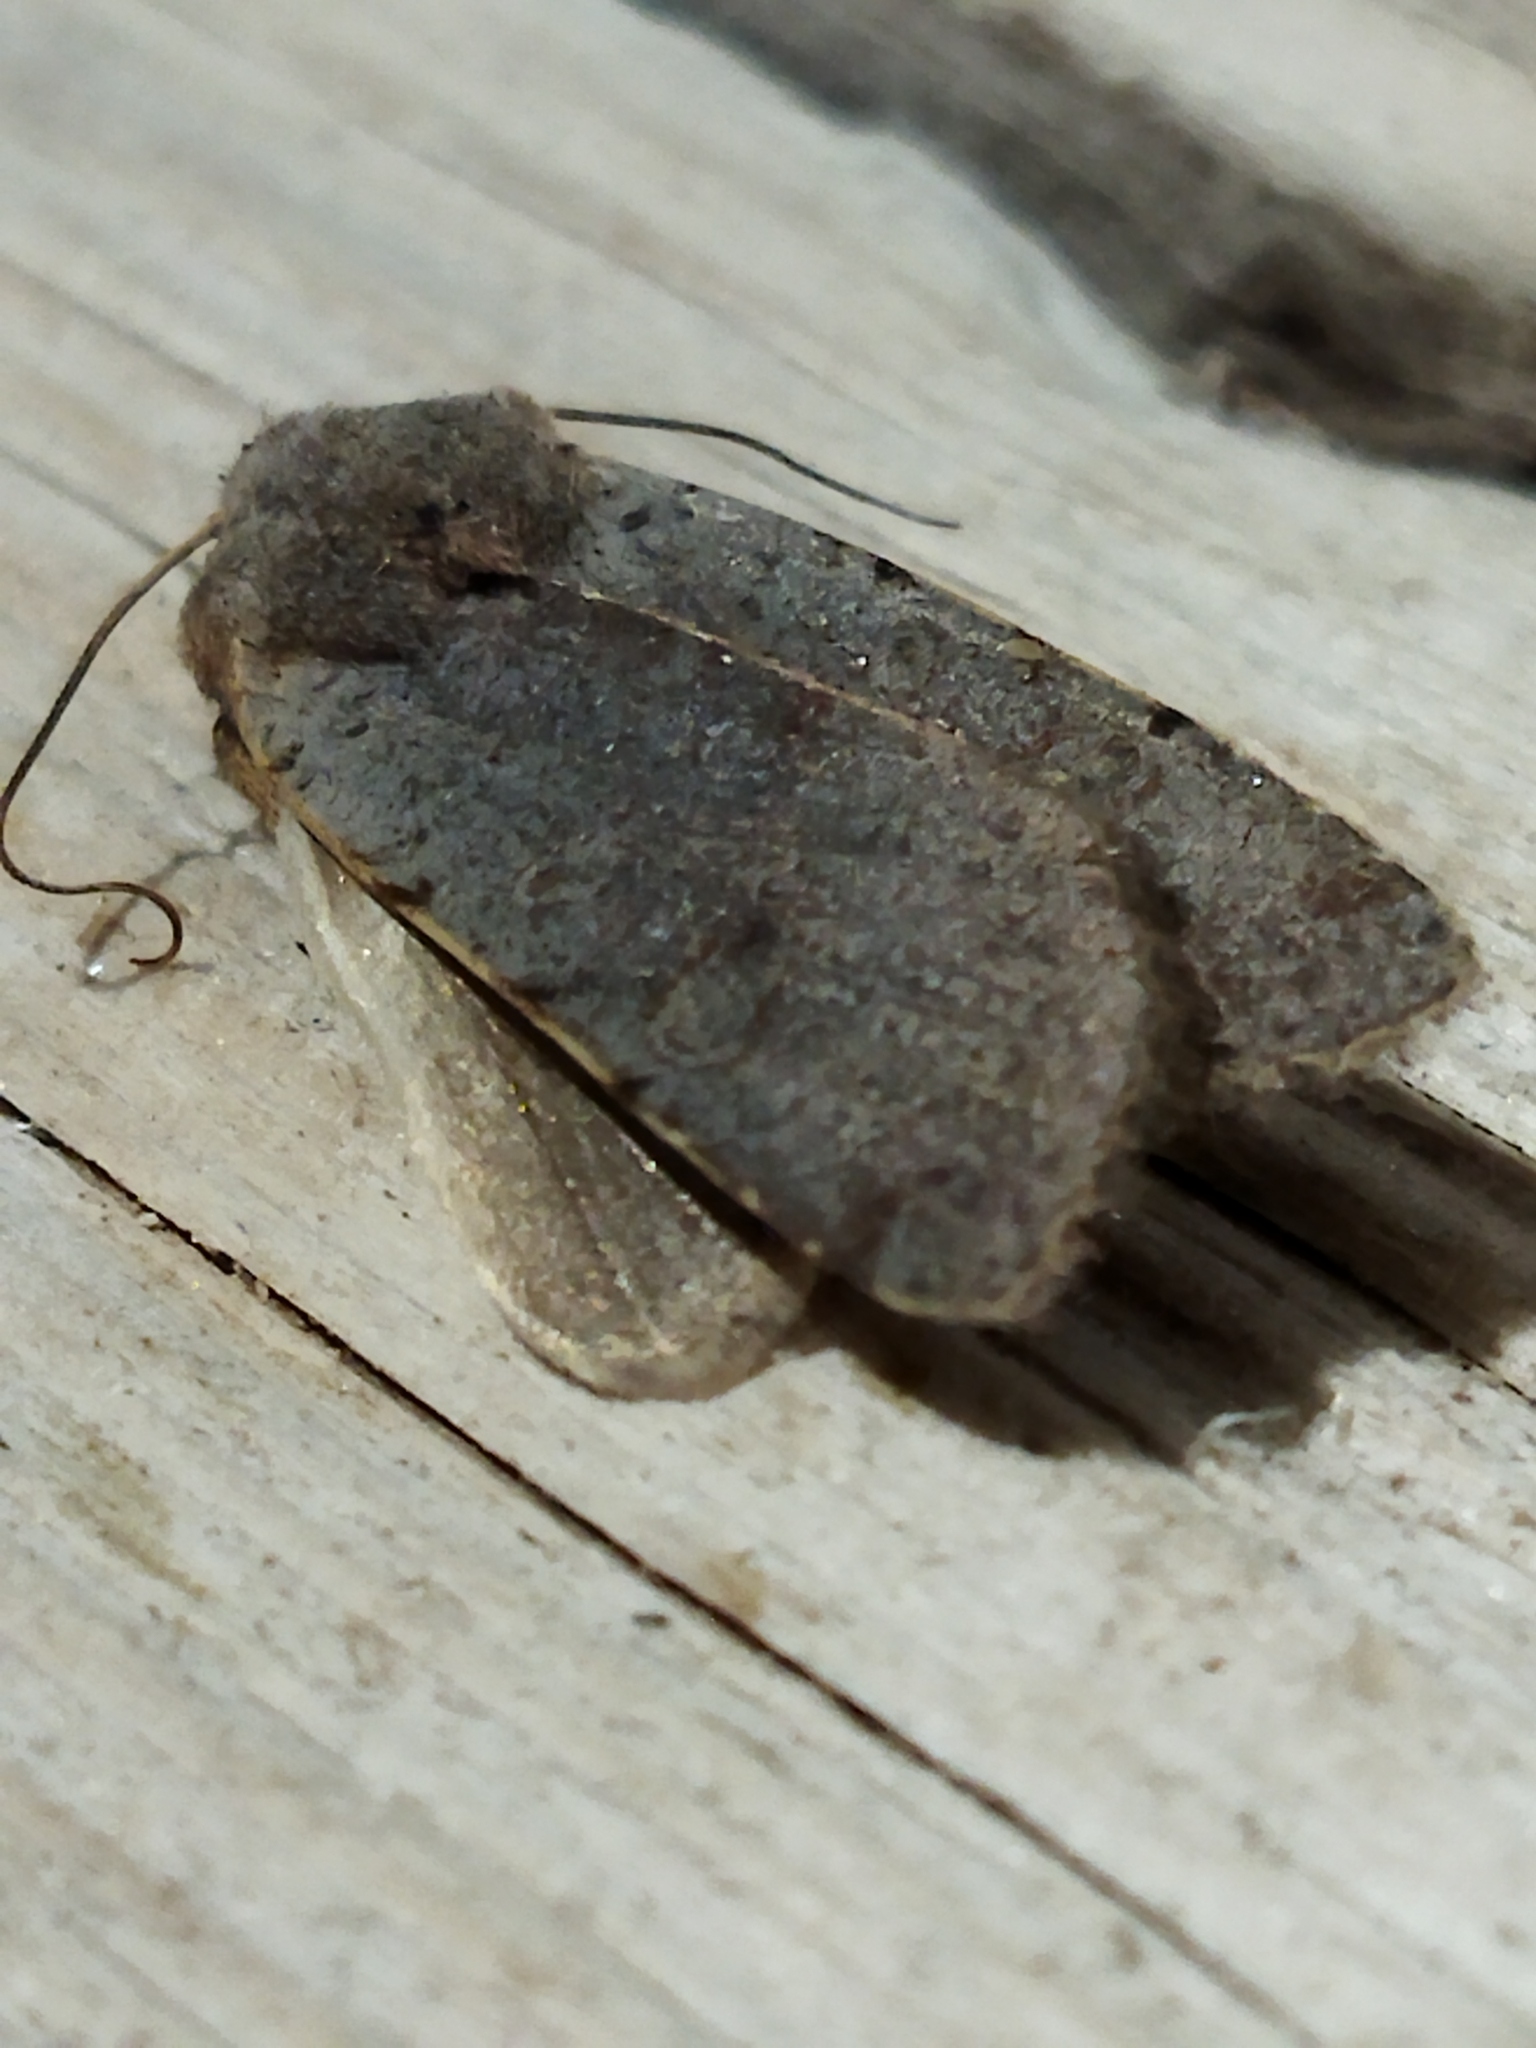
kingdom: Animalia
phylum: Arthropoda
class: Insecta
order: Lepidoptera
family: Noctuidae
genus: Agrochola
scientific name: Agrochola lychnidis
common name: Beaded chestnut
